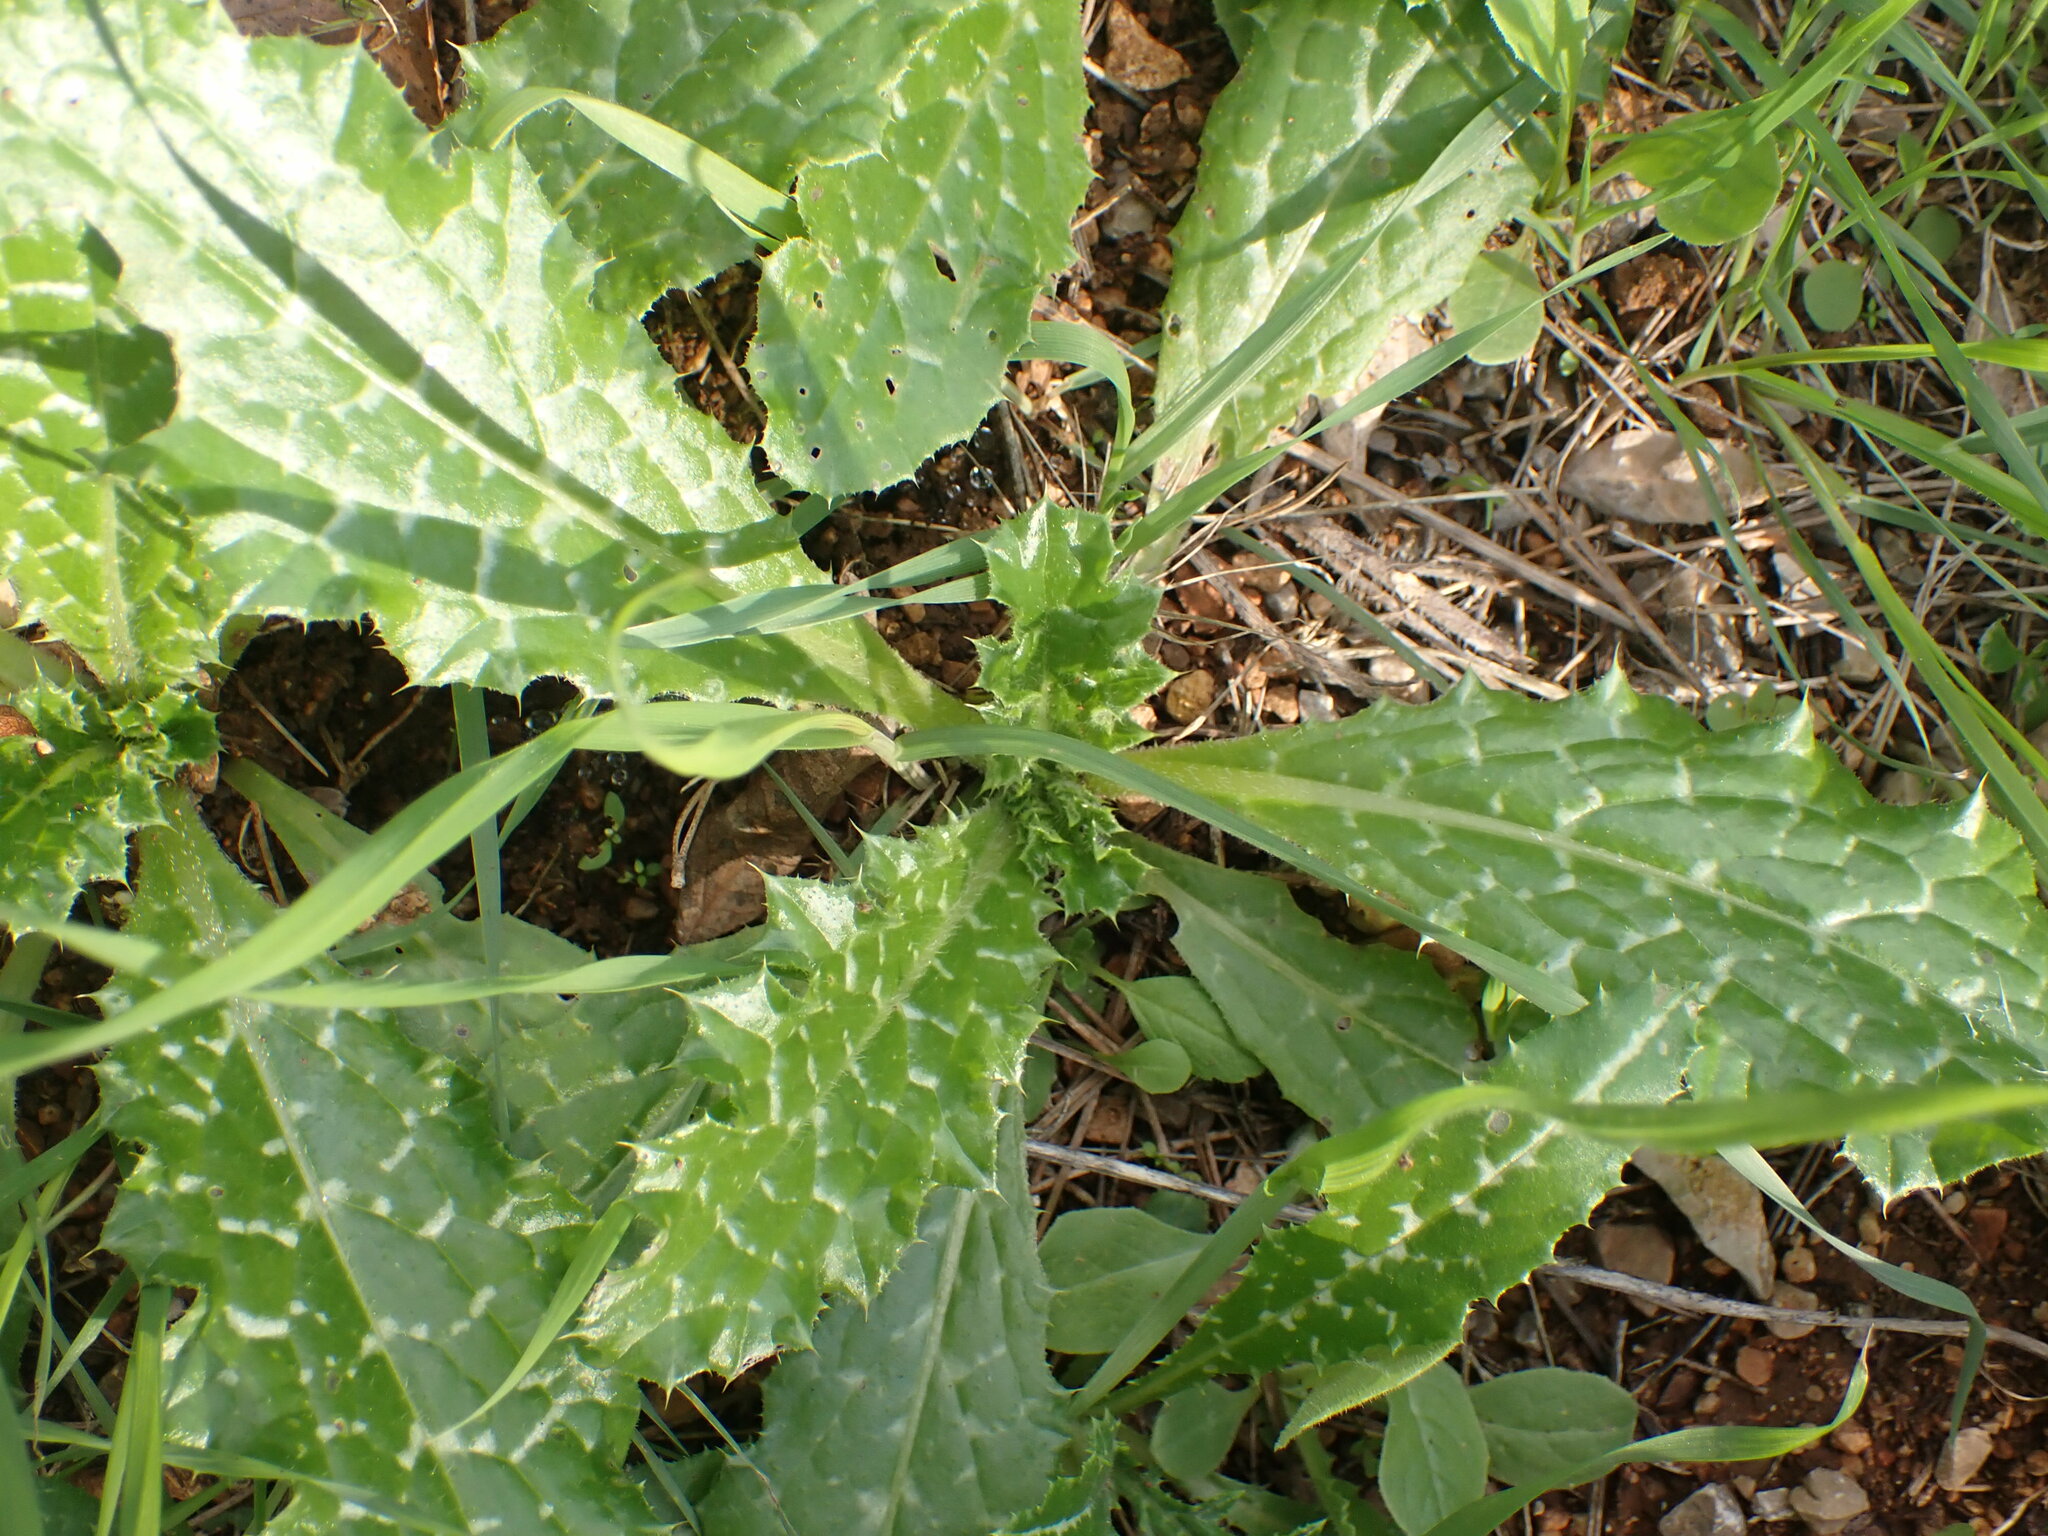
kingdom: Plantae
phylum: Tracheophyta
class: Magnoliopsida
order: Asterales
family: Asteraceae
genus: Silybum
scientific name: Silybum marianum
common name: Milk thistle
